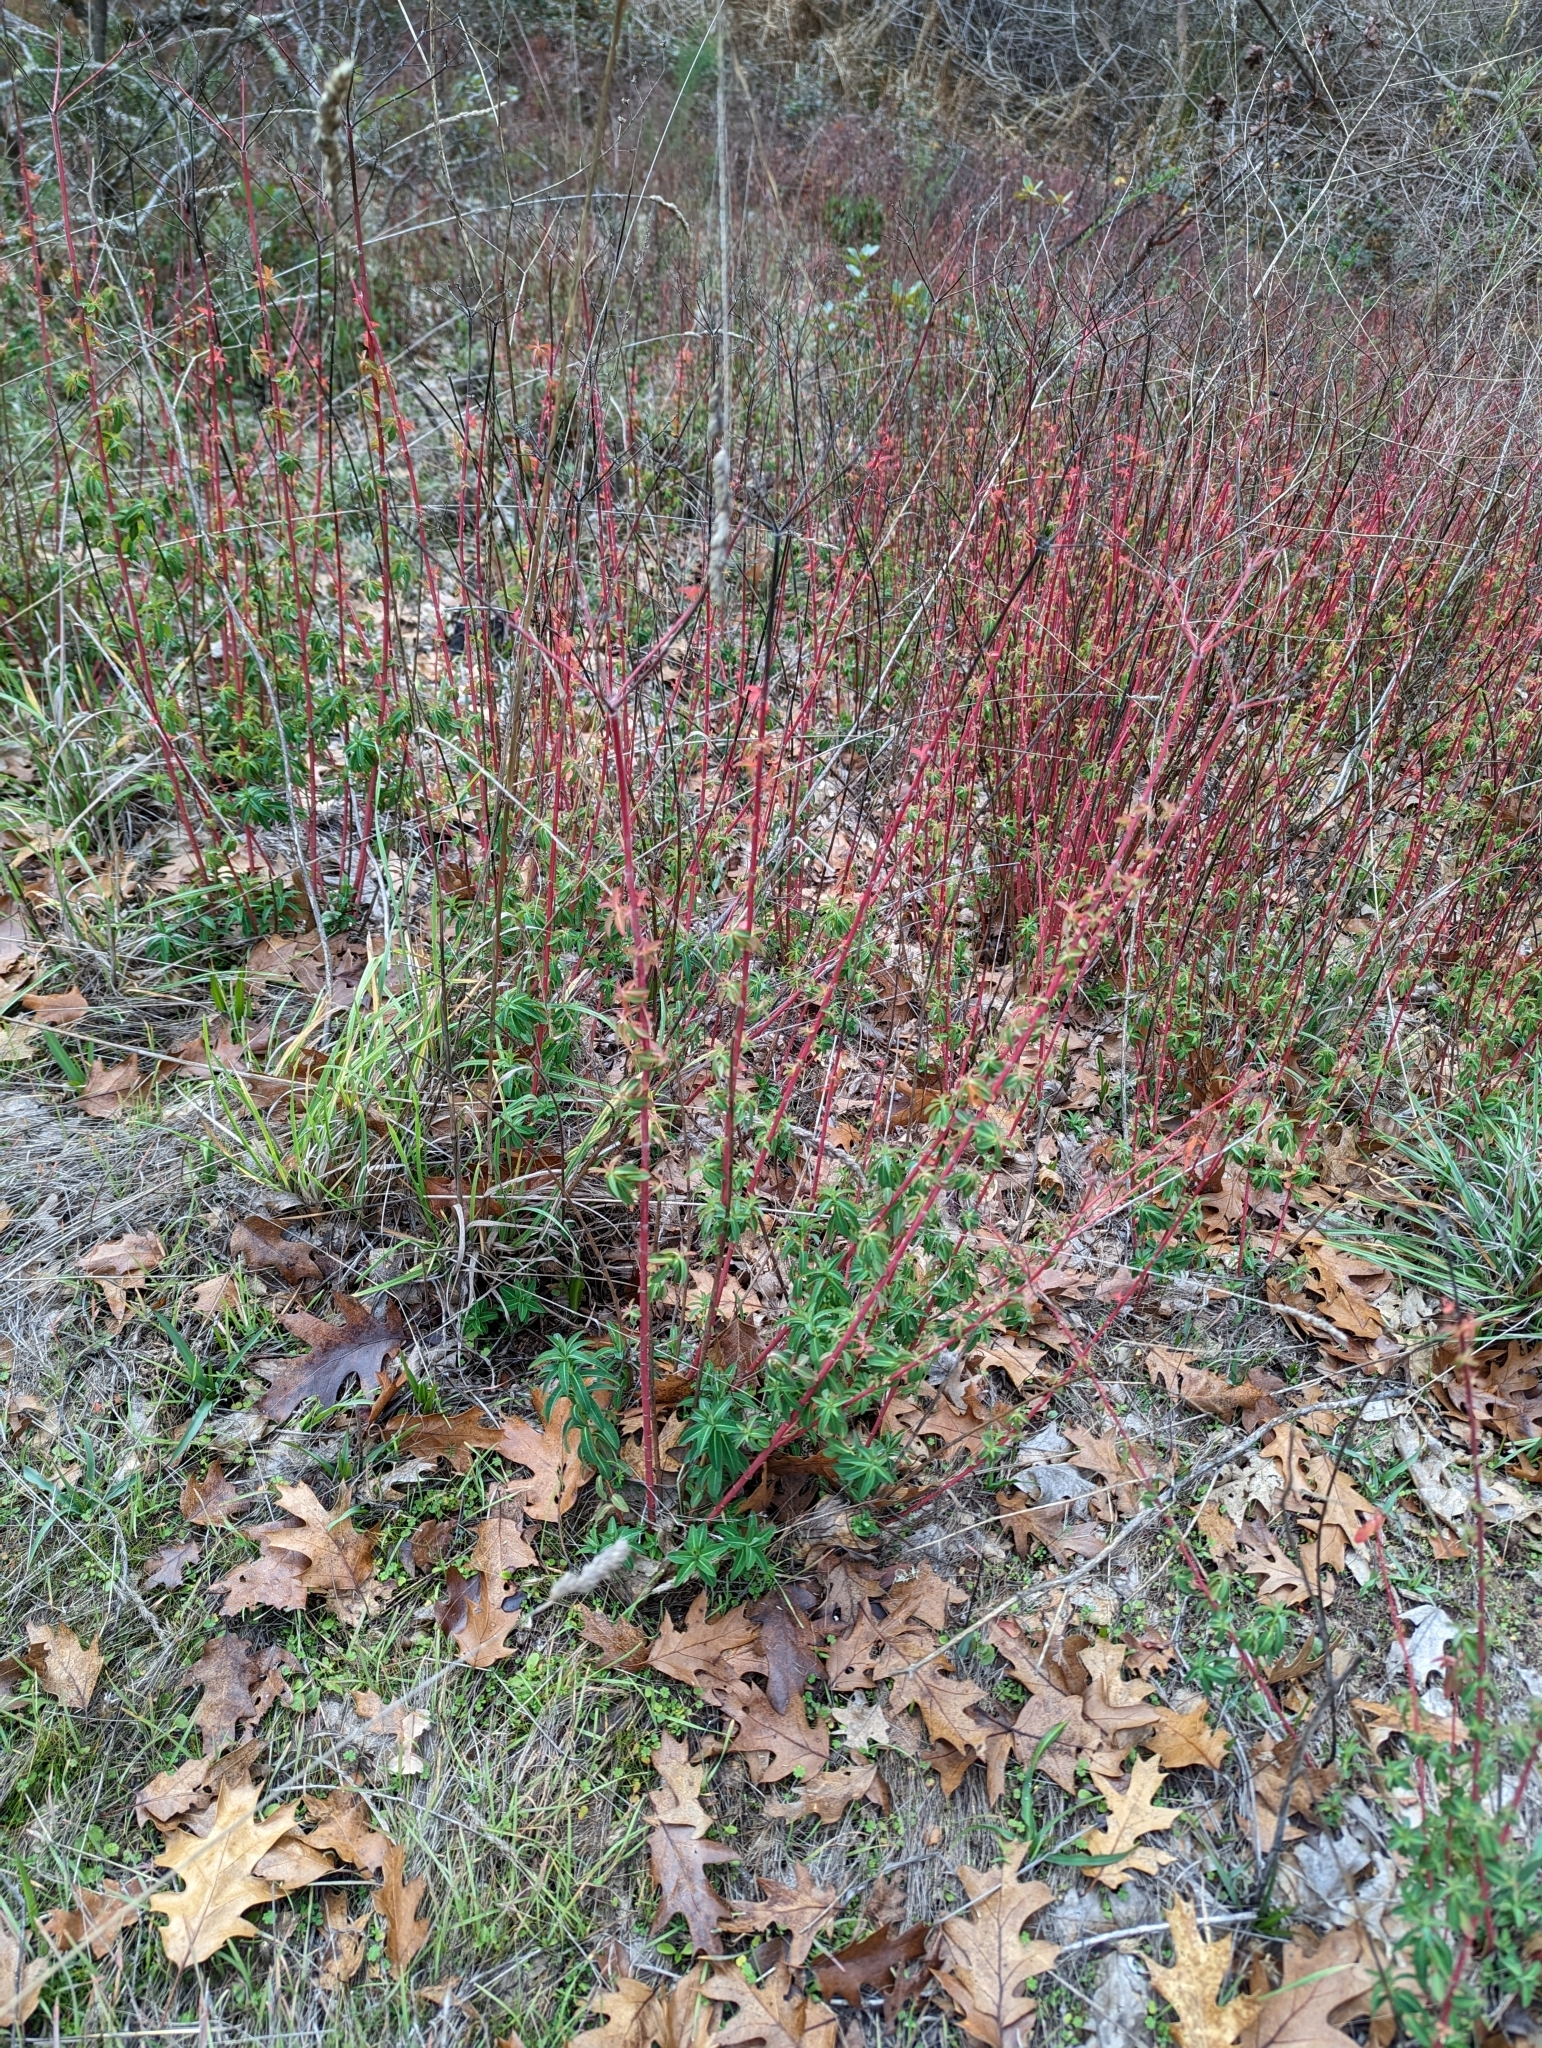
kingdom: Plantae
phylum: Tracheophyta
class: Magnoliopsida
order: Malpighiales
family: Euphorbiaceae
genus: Euphorbia
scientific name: Euphorbia oblongata
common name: Balkan spurge
